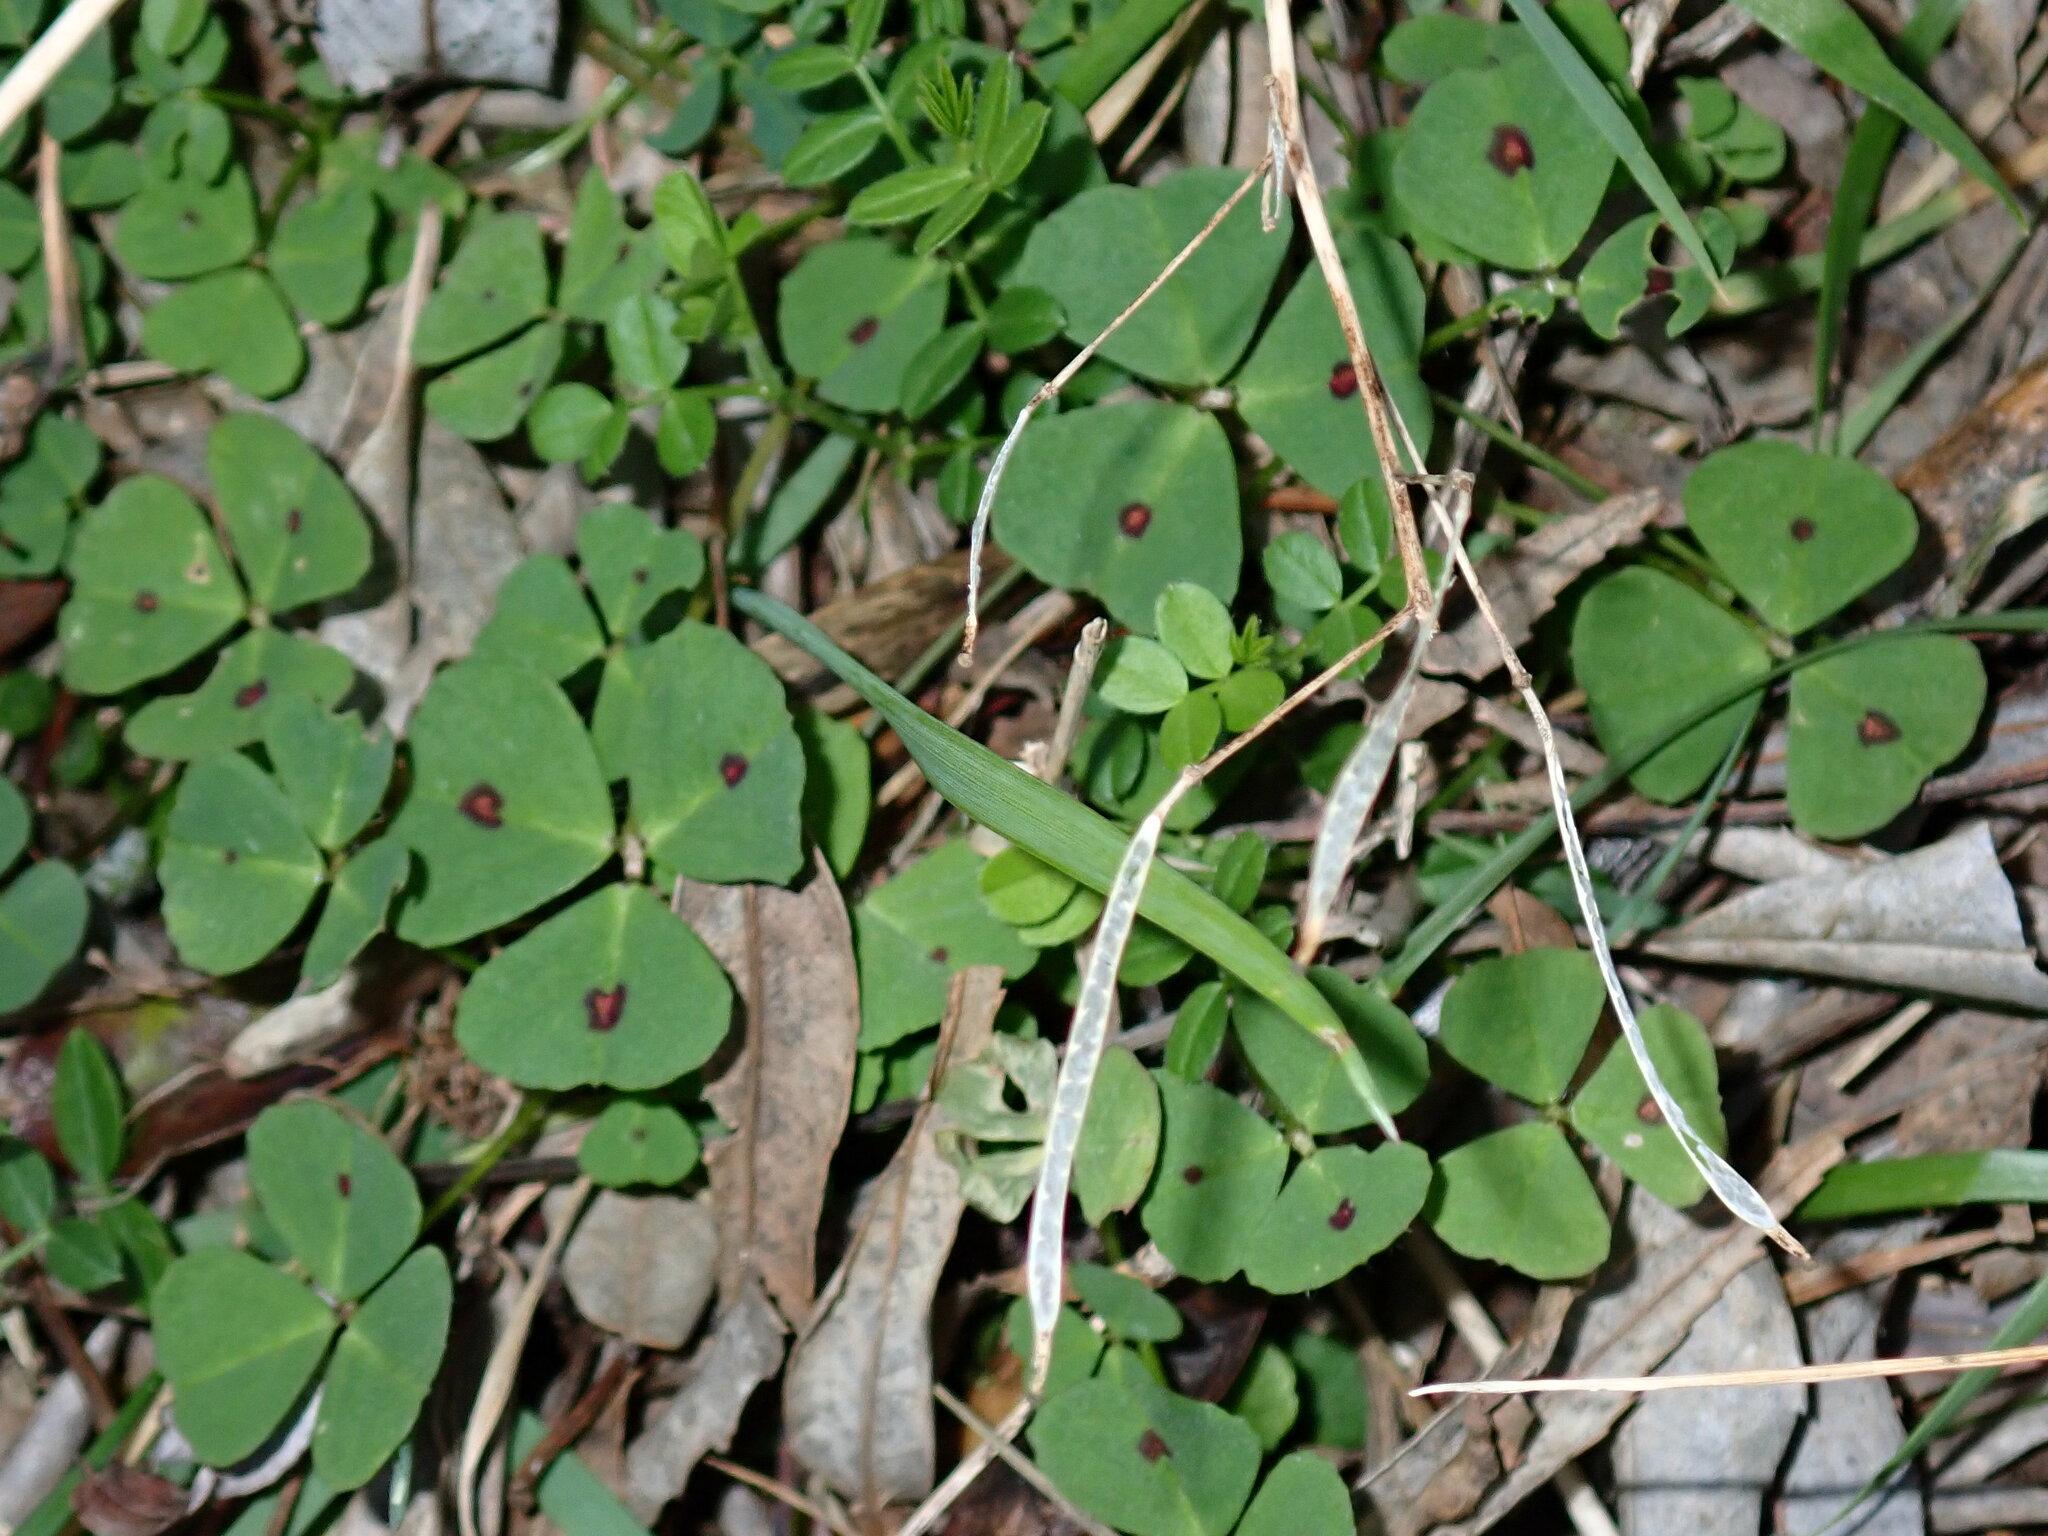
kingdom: Plantae
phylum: Tracheophyta
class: Magnoliopsida
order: Fabales
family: Fabaceae
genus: Medicago
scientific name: Medicago arabica
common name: Spotted medick
